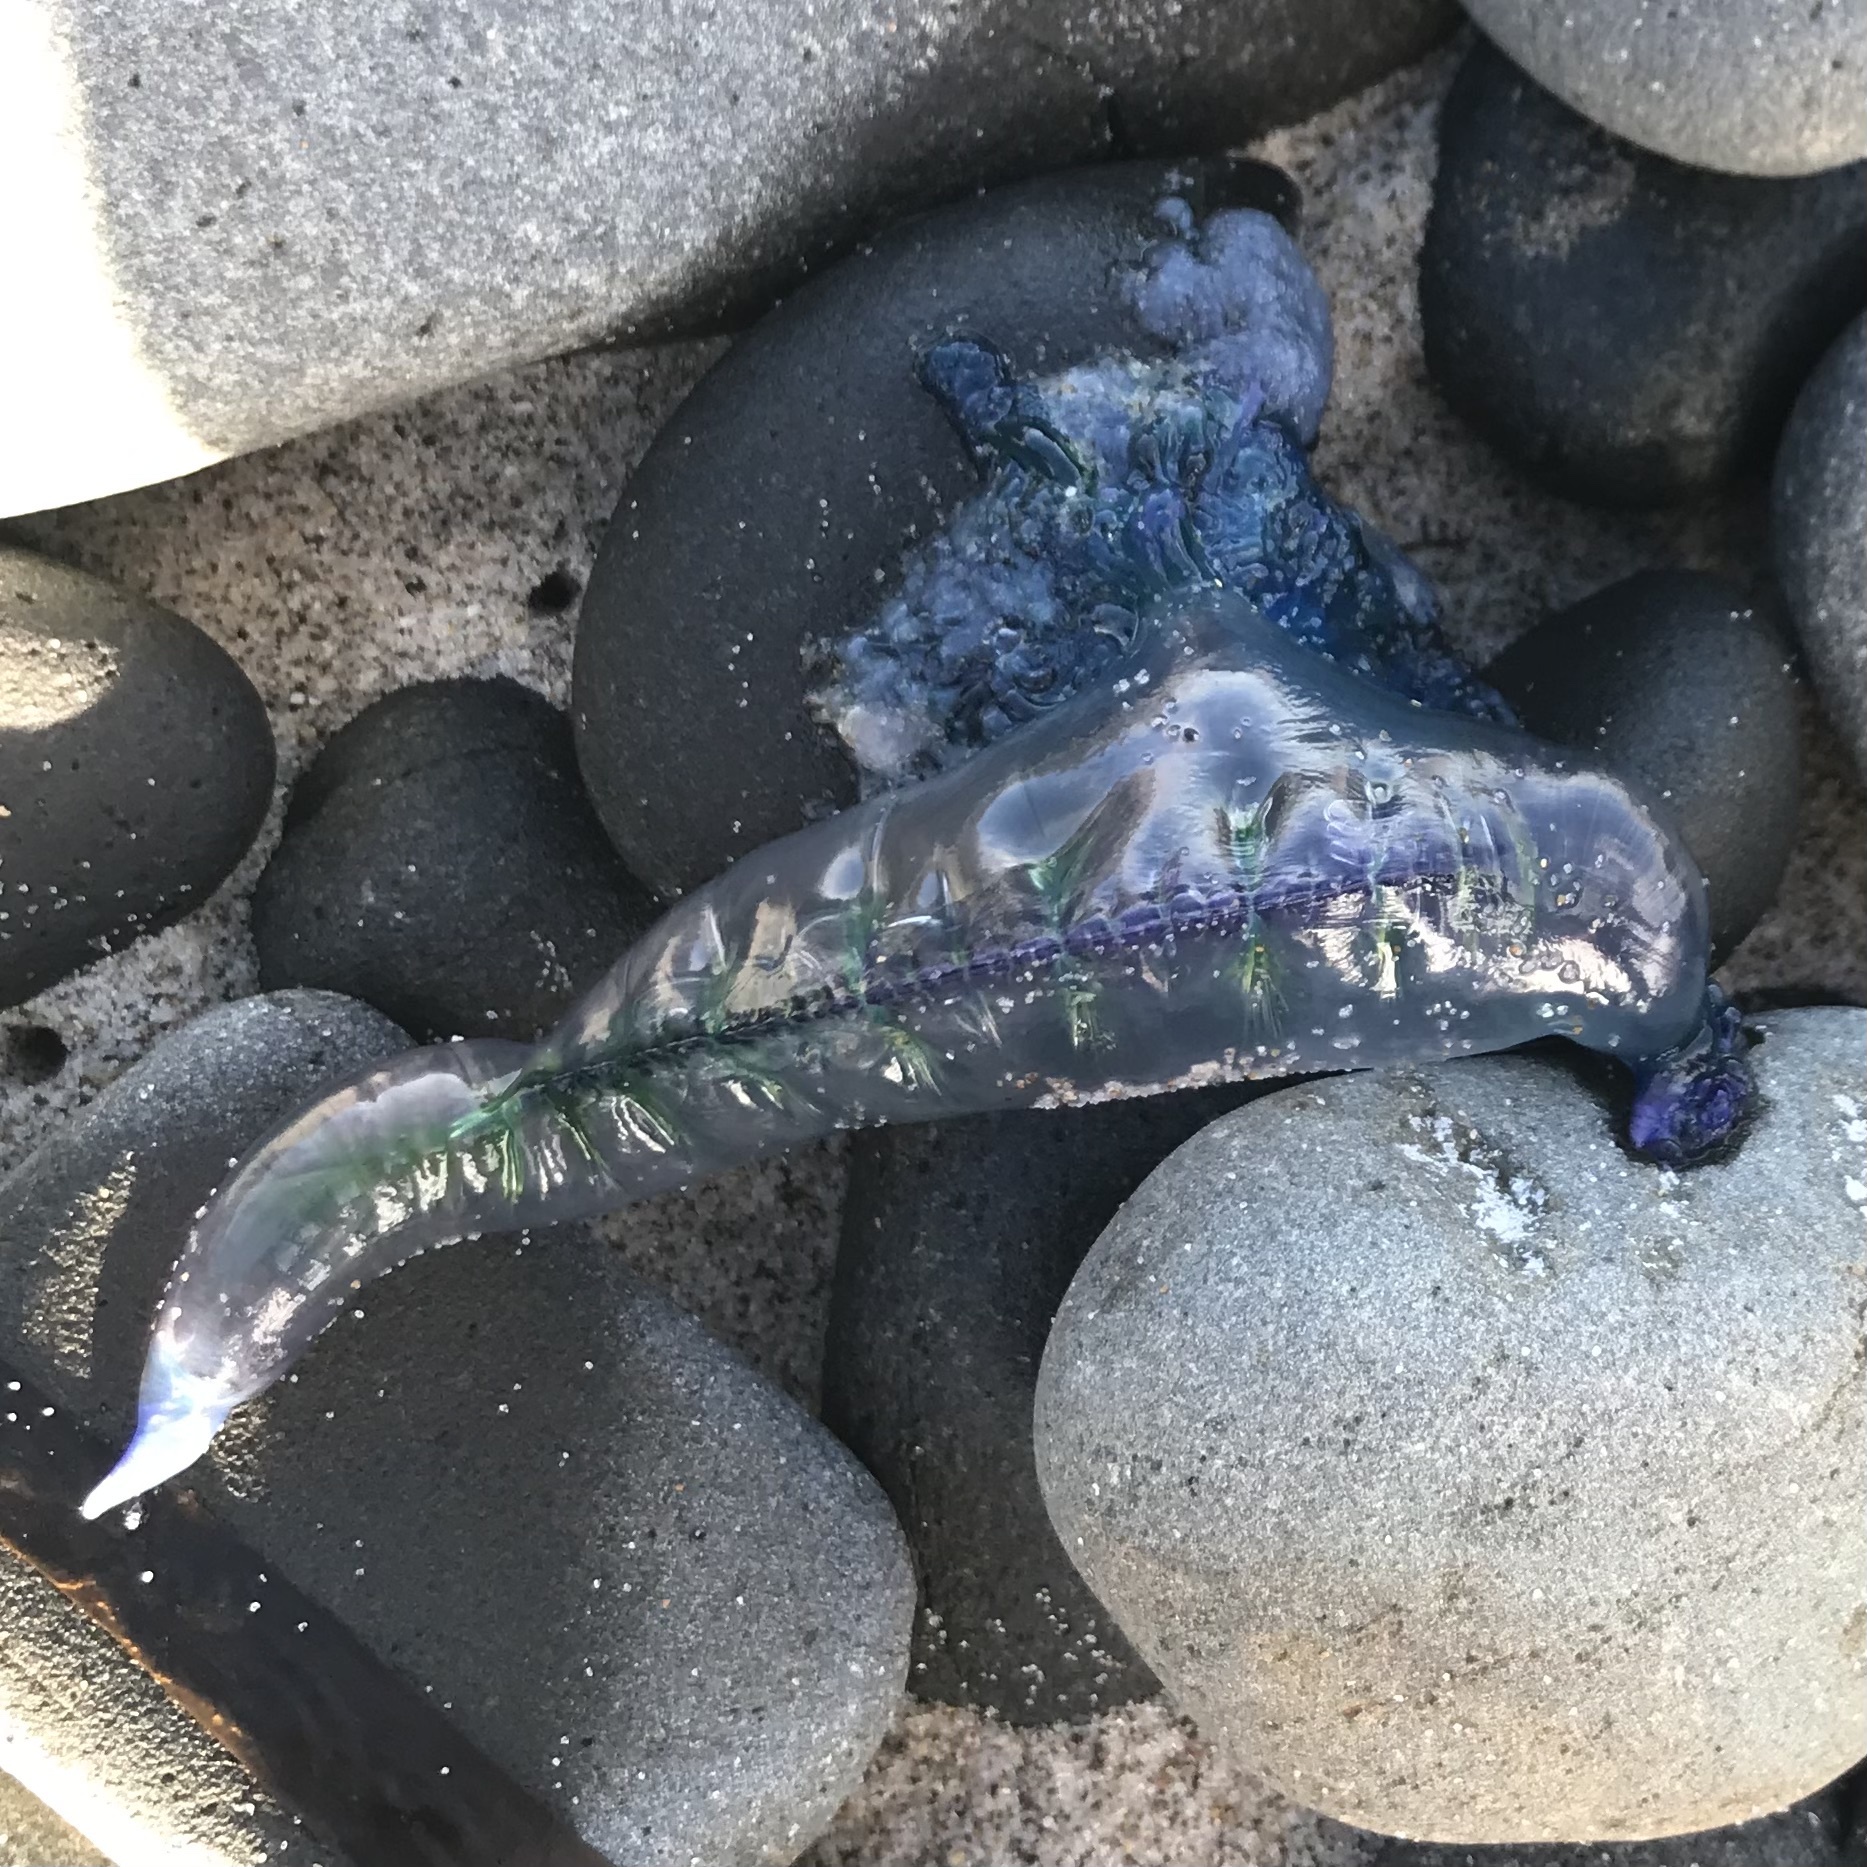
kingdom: Animalia
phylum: Cnidaria
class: Hydrozoa
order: Siphonophorae
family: Physaliidae
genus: Physalia
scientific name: Physalia physalis
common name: Portuguese man-of-war
